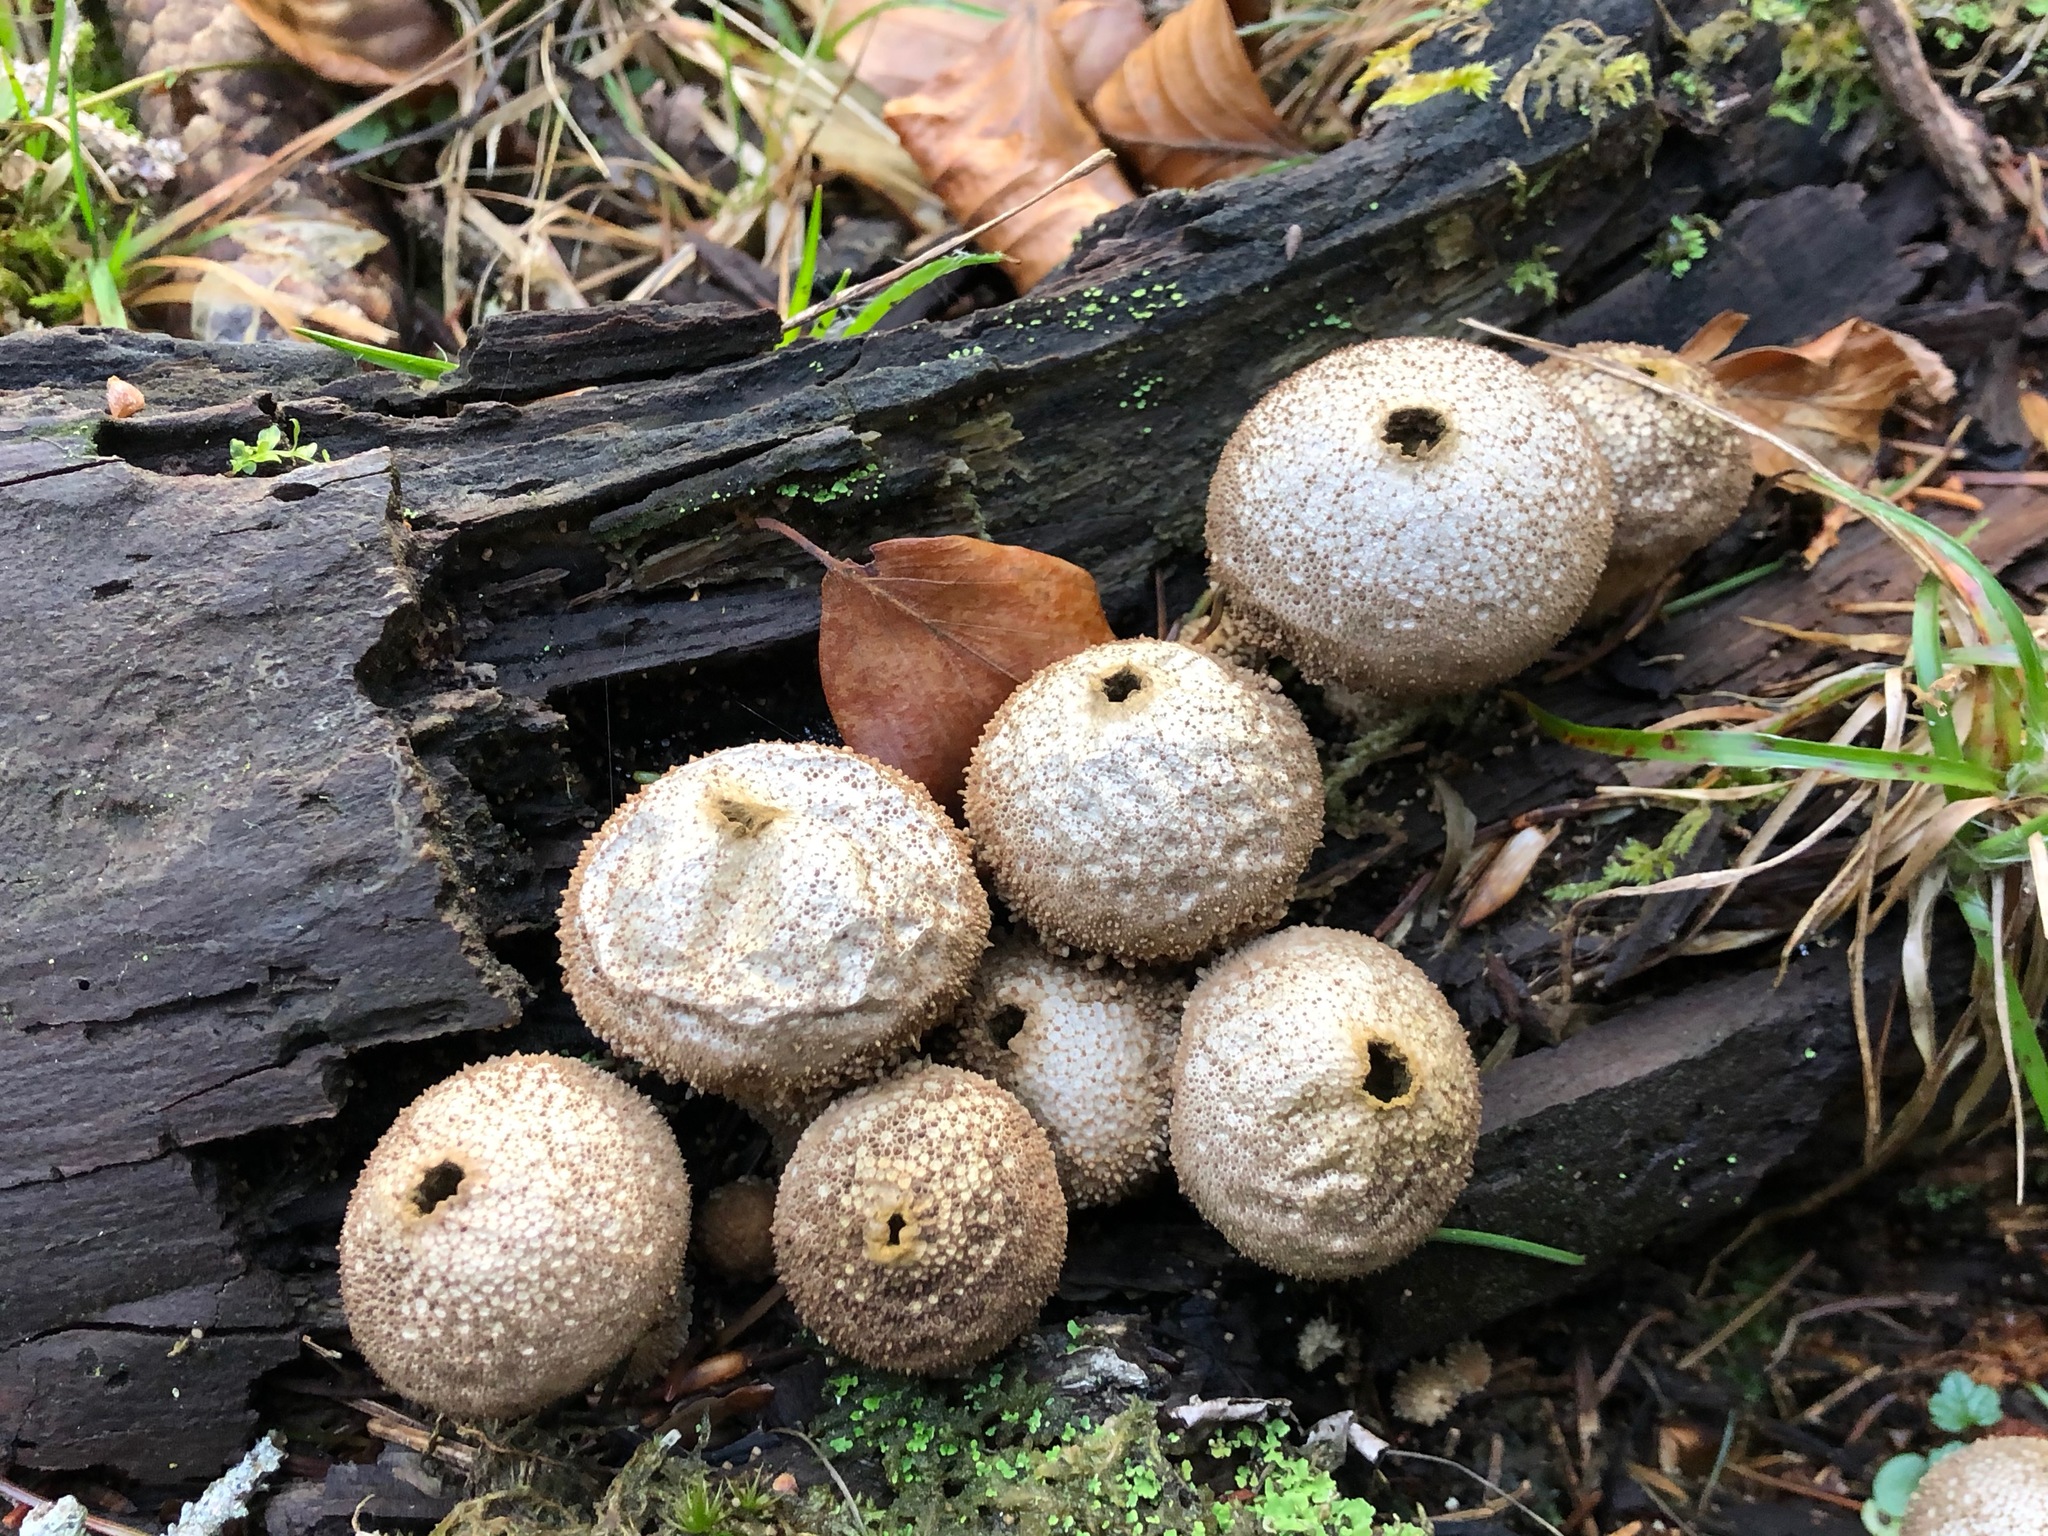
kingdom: Fungi
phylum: Basidiomycota
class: Agaricomycetes
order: Agaricales
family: Lycoperdaceae
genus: Lycoperdon
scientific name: Lycoperdon perlatum
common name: Common puffball
